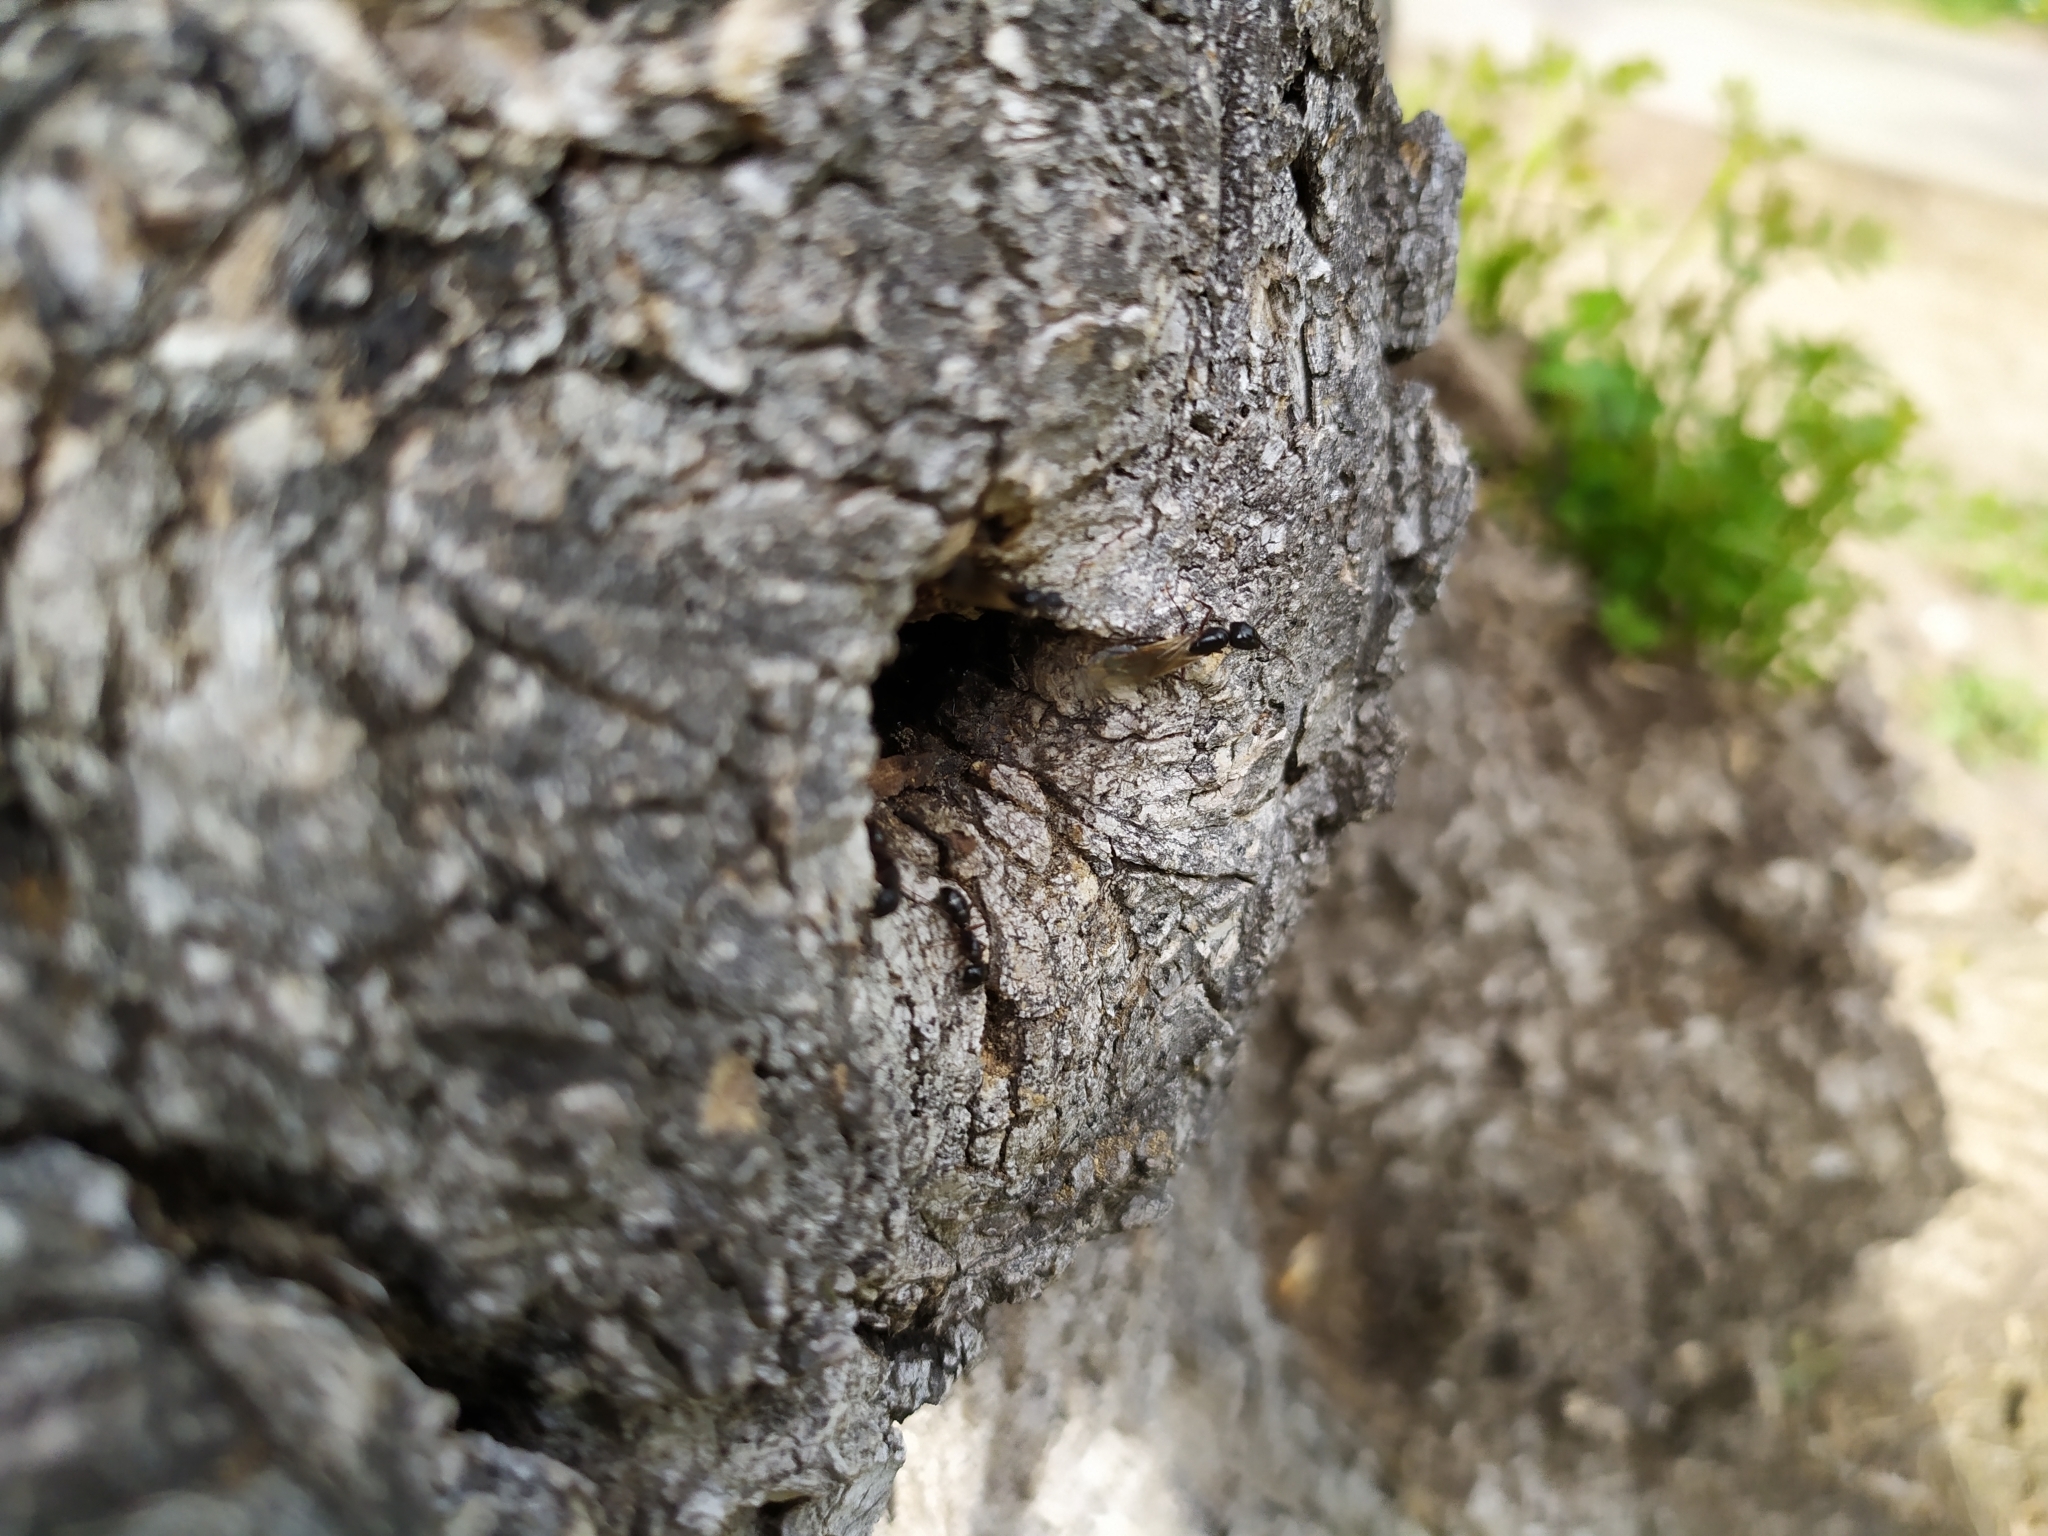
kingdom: Animalia
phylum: Arthropoda
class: Insecta
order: Hymenoptera
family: Formicidae
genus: Camponotus
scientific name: Camponotus fallax
